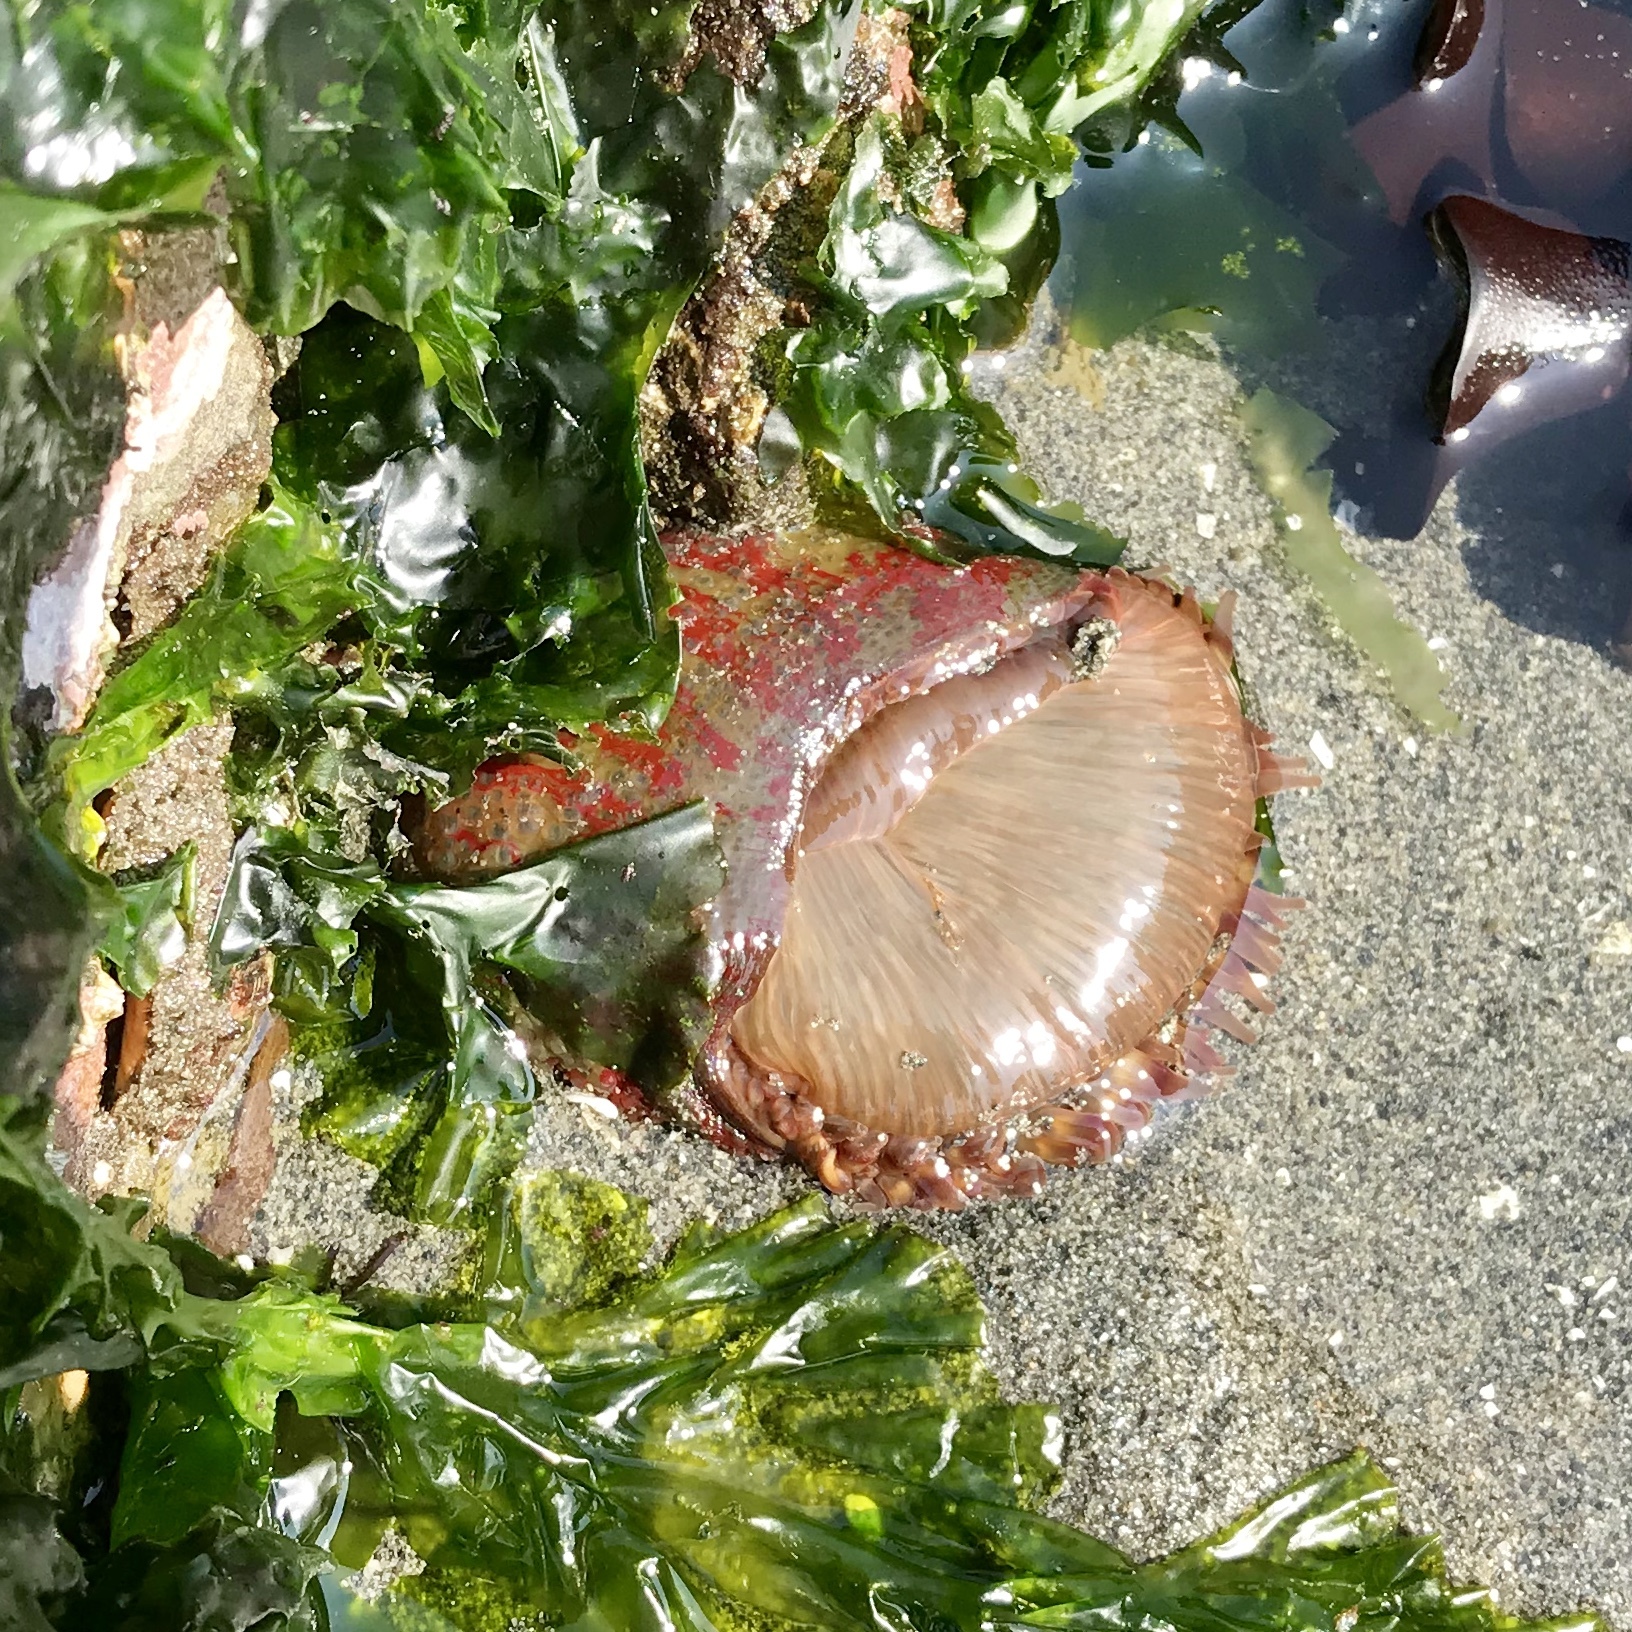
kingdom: Animalia
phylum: Cnidaria
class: Anthozoa
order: Actiniaria
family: Actiniidae
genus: Urticina
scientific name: Urticina grebelnyi
